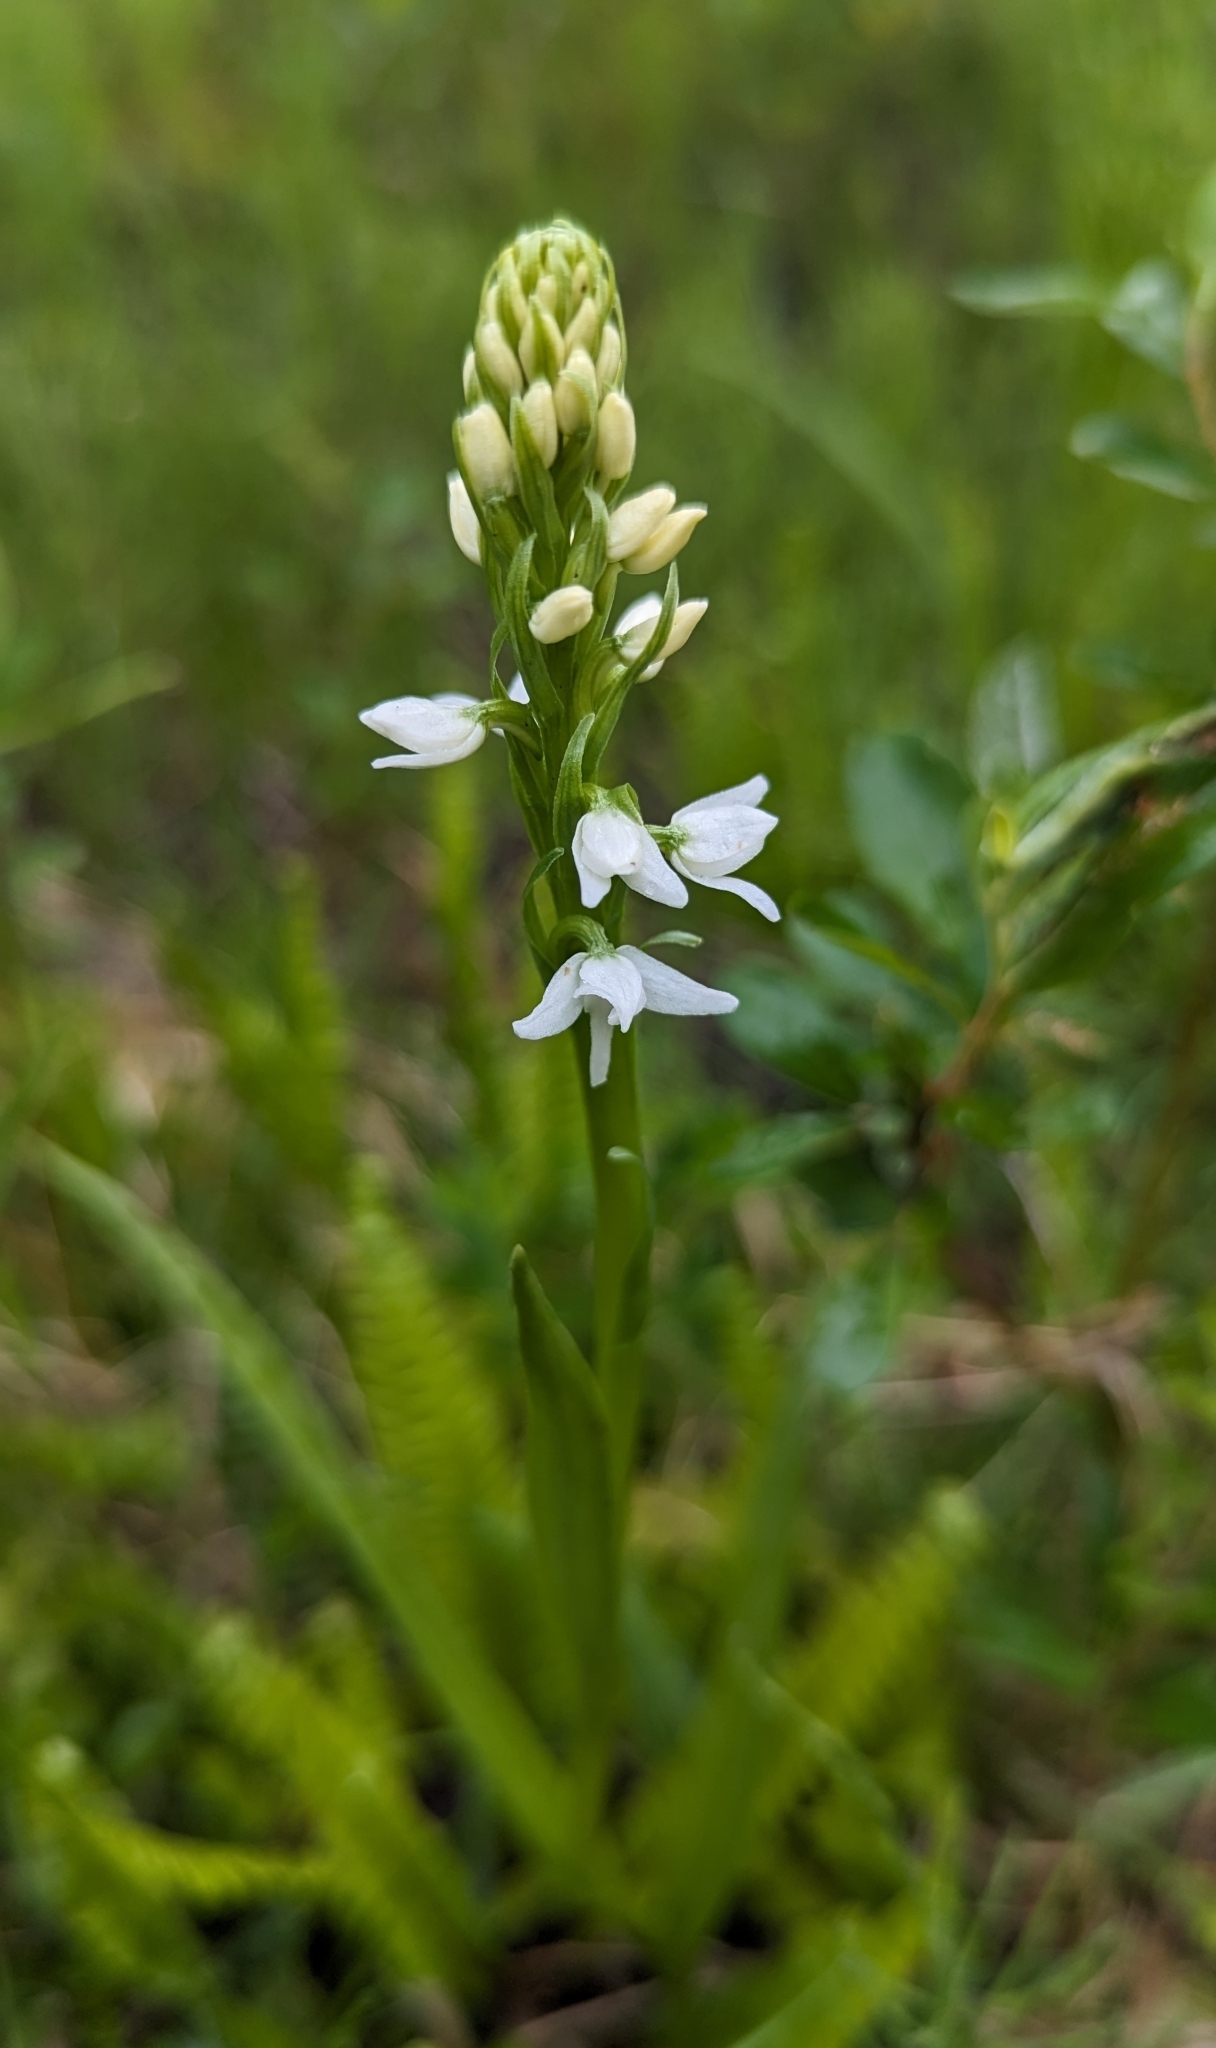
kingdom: Plantae
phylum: Tracheophyta
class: Liliopsida
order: Asparagales
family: Orchidaceae
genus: Platanthera
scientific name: Platanthera dilatata
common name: Bog candles
